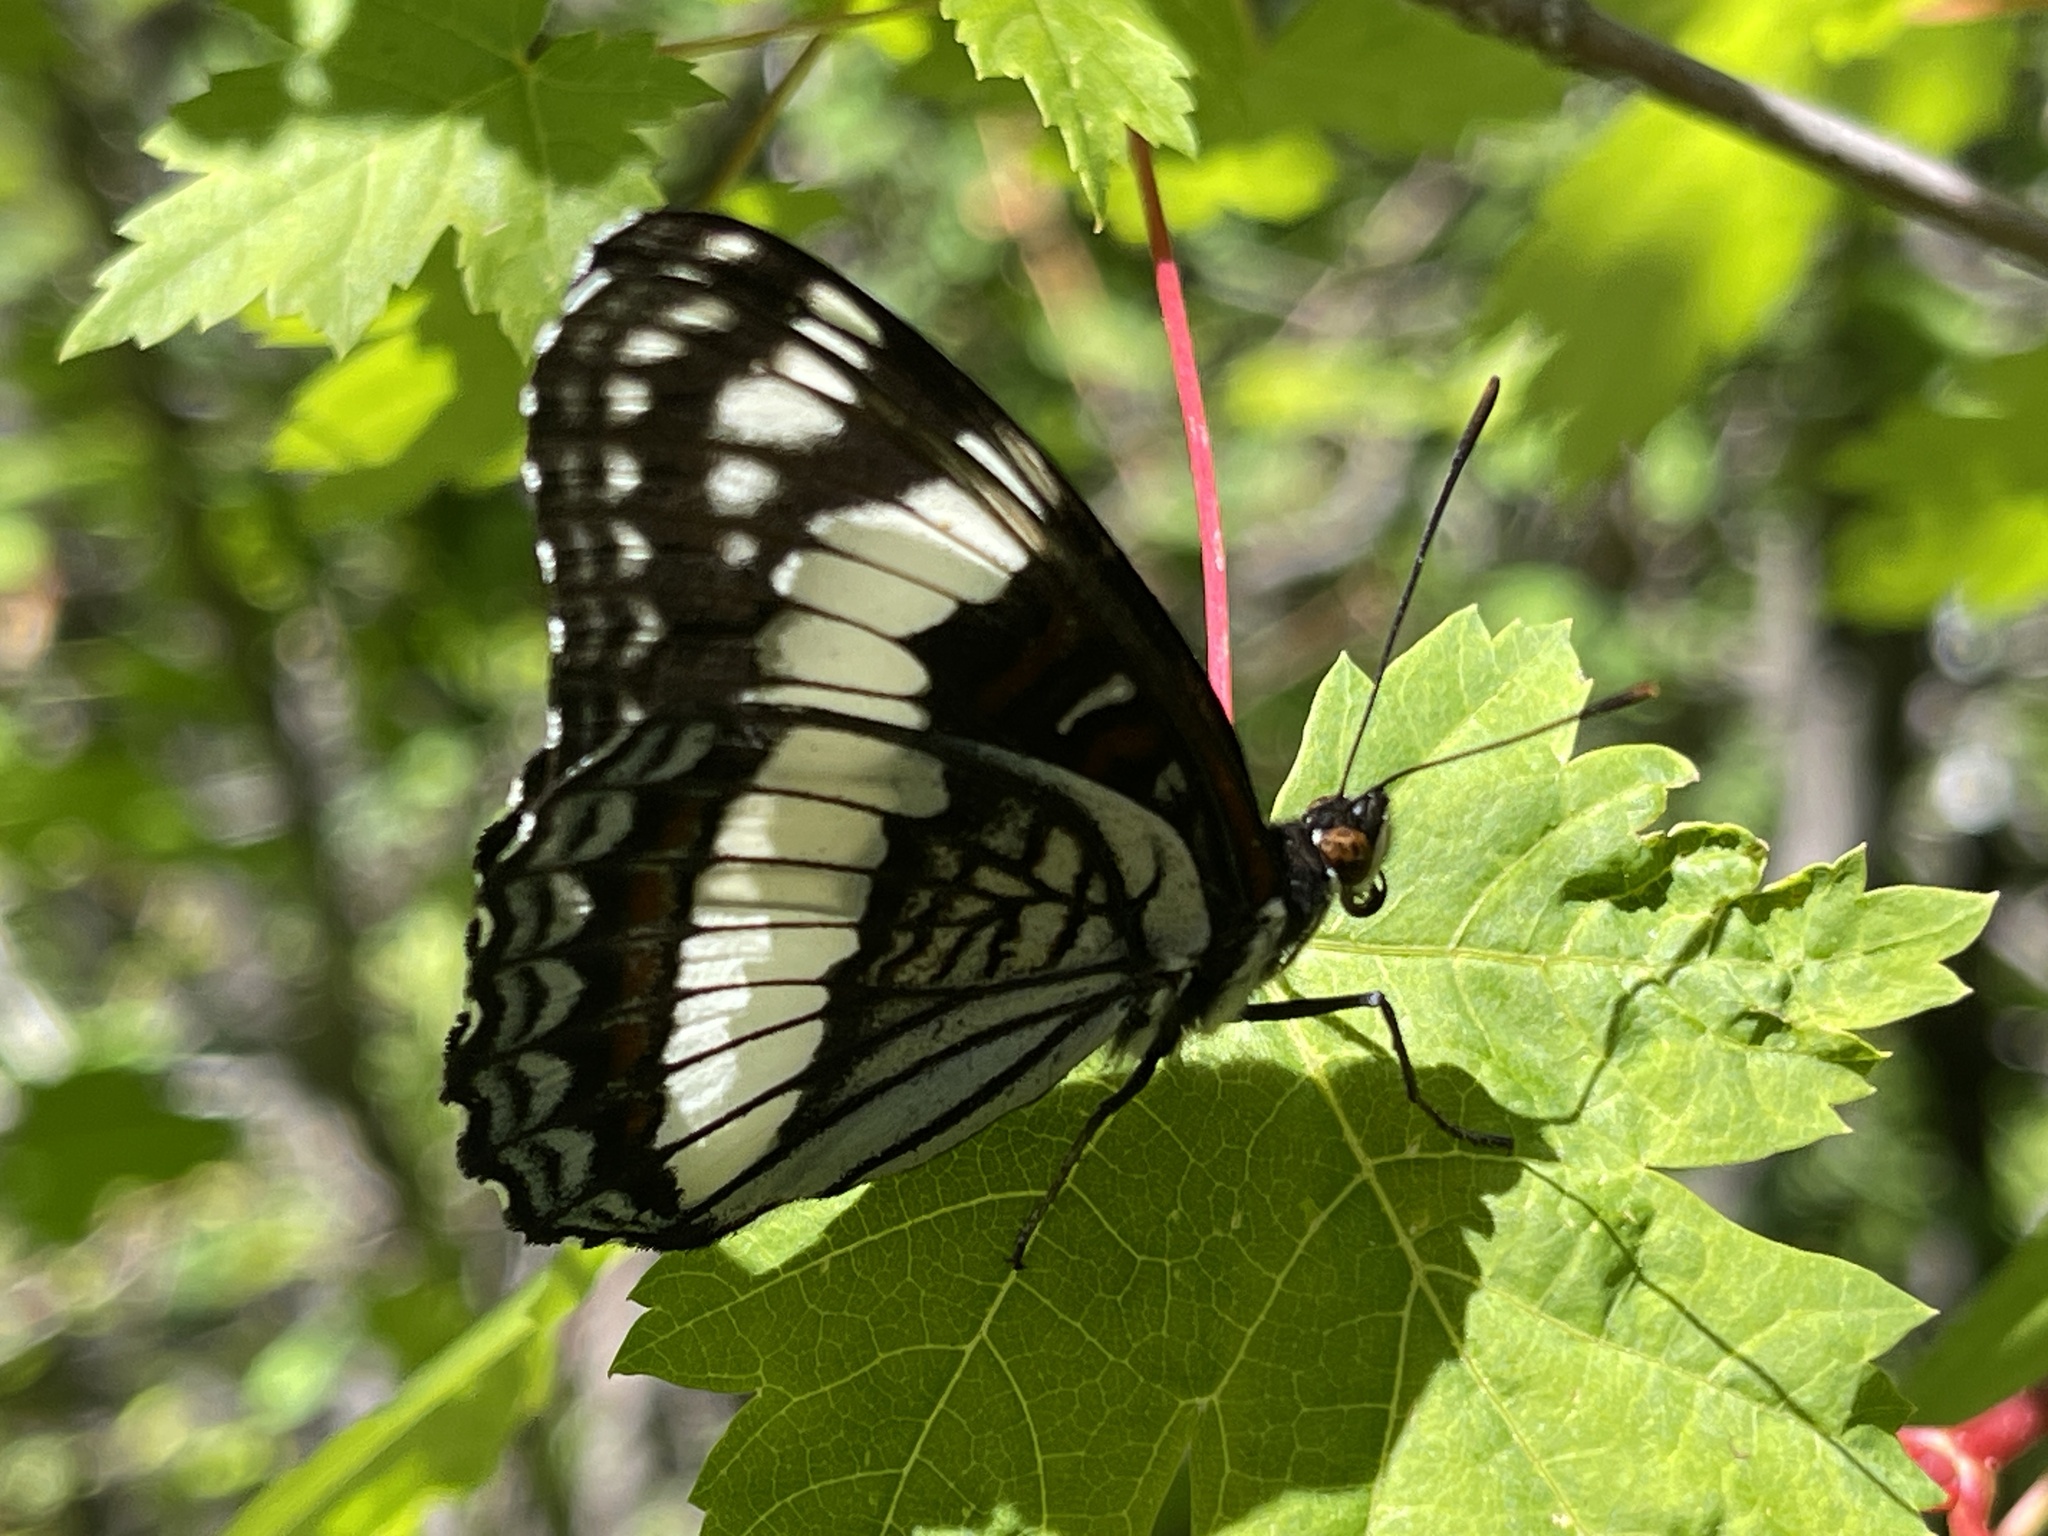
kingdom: Animalia
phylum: Arthropoda
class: Insecta
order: Lepidoptera
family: Nymphalidae
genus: Limenitis
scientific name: Limenitis weidemeyerii
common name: Weidemeyer's admiral
